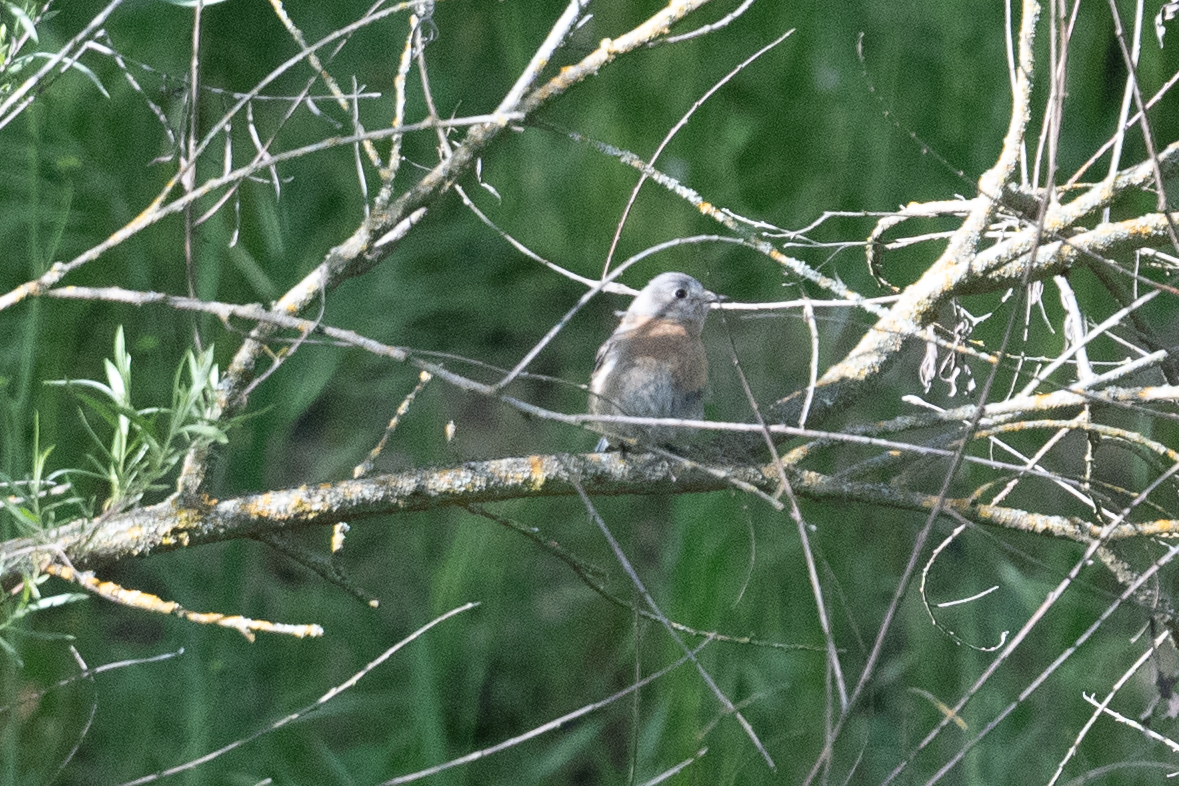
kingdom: Animalia
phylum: Chordata
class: Aves
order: Passeriformes
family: Turdidae
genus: Sialia
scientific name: Sialia mexicana
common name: Western bluebird
